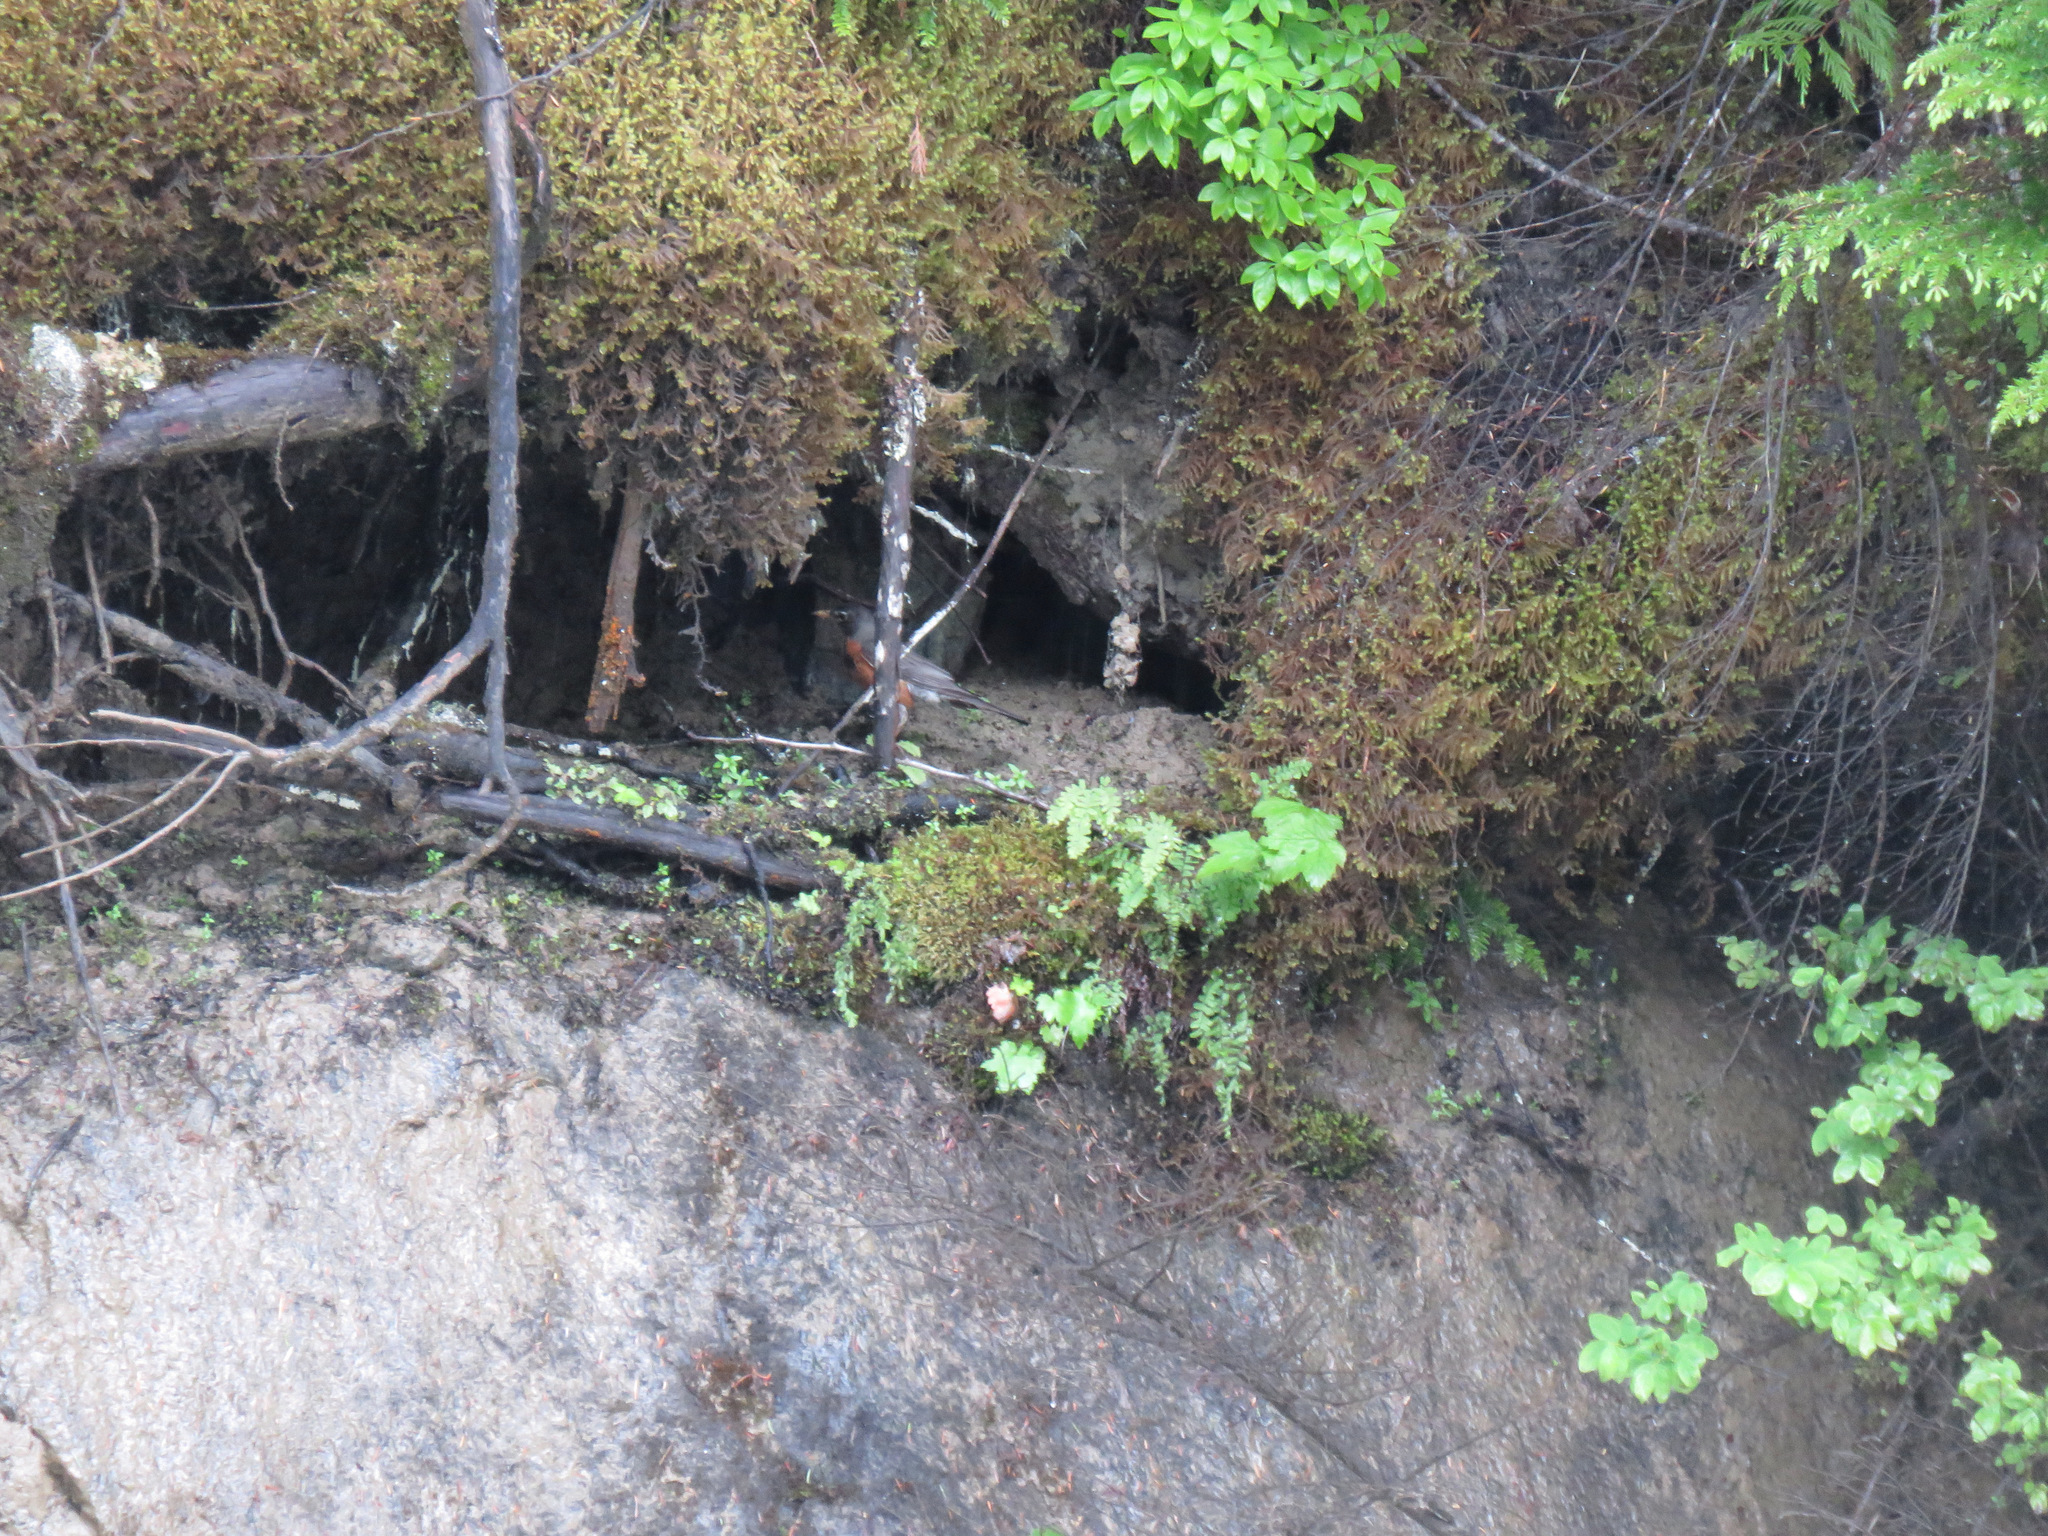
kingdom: Animalia
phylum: Chordata
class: Aves
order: Passeriformes
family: Turdidae
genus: Turdus
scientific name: Turdus migratorius
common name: American robin
